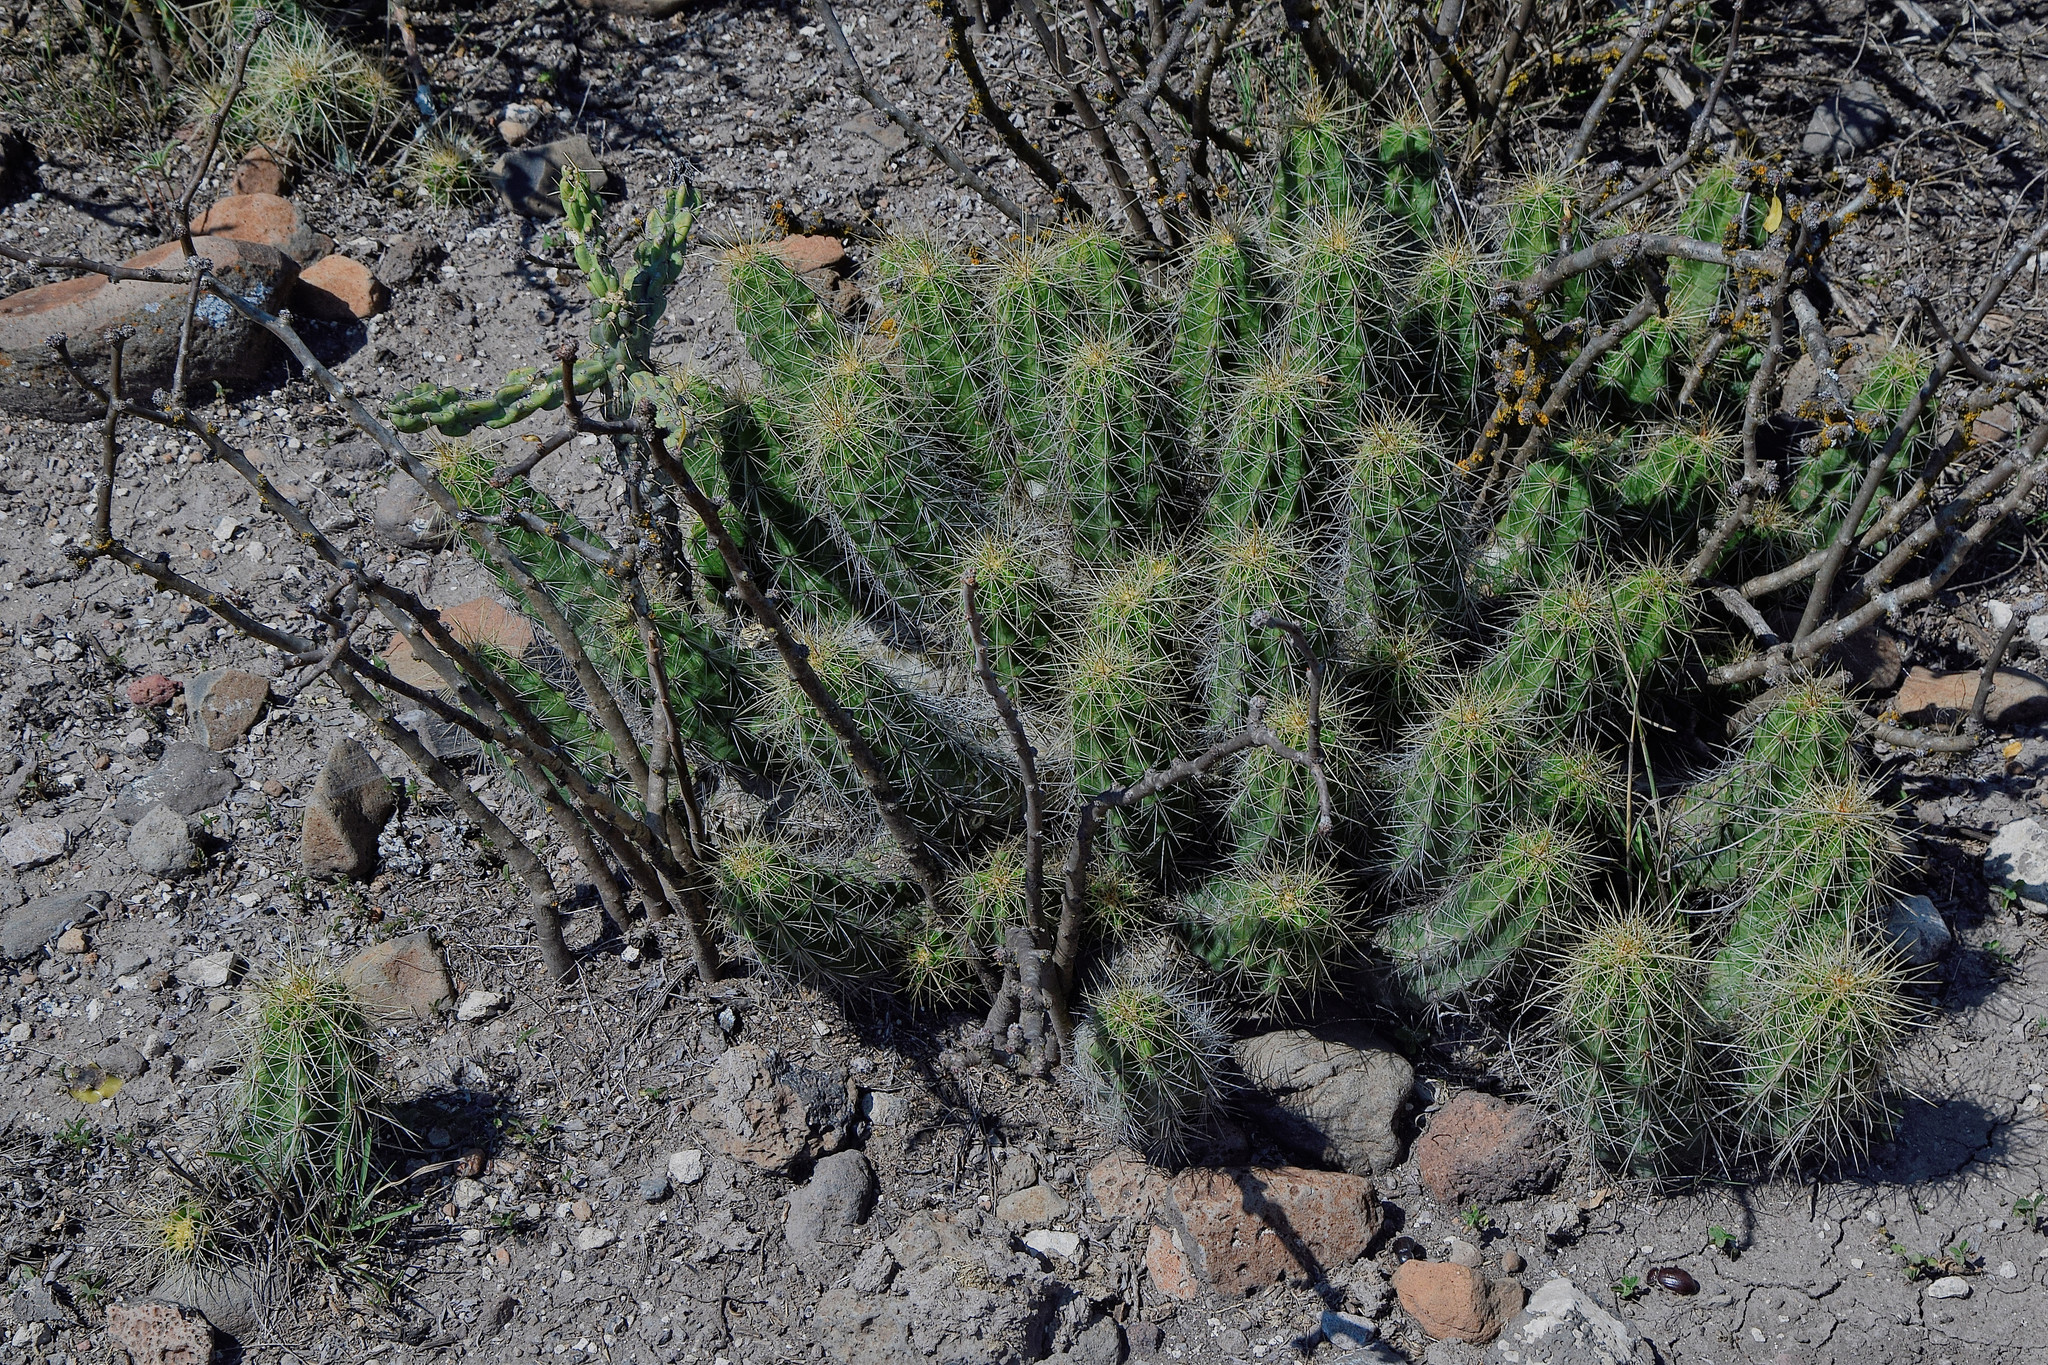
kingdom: Plantae
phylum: Tracheophyta
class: Magnoliopsida
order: Caryophyllales
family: Cactaceae
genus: Echinocereus
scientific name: Echinocereus cinerascens
